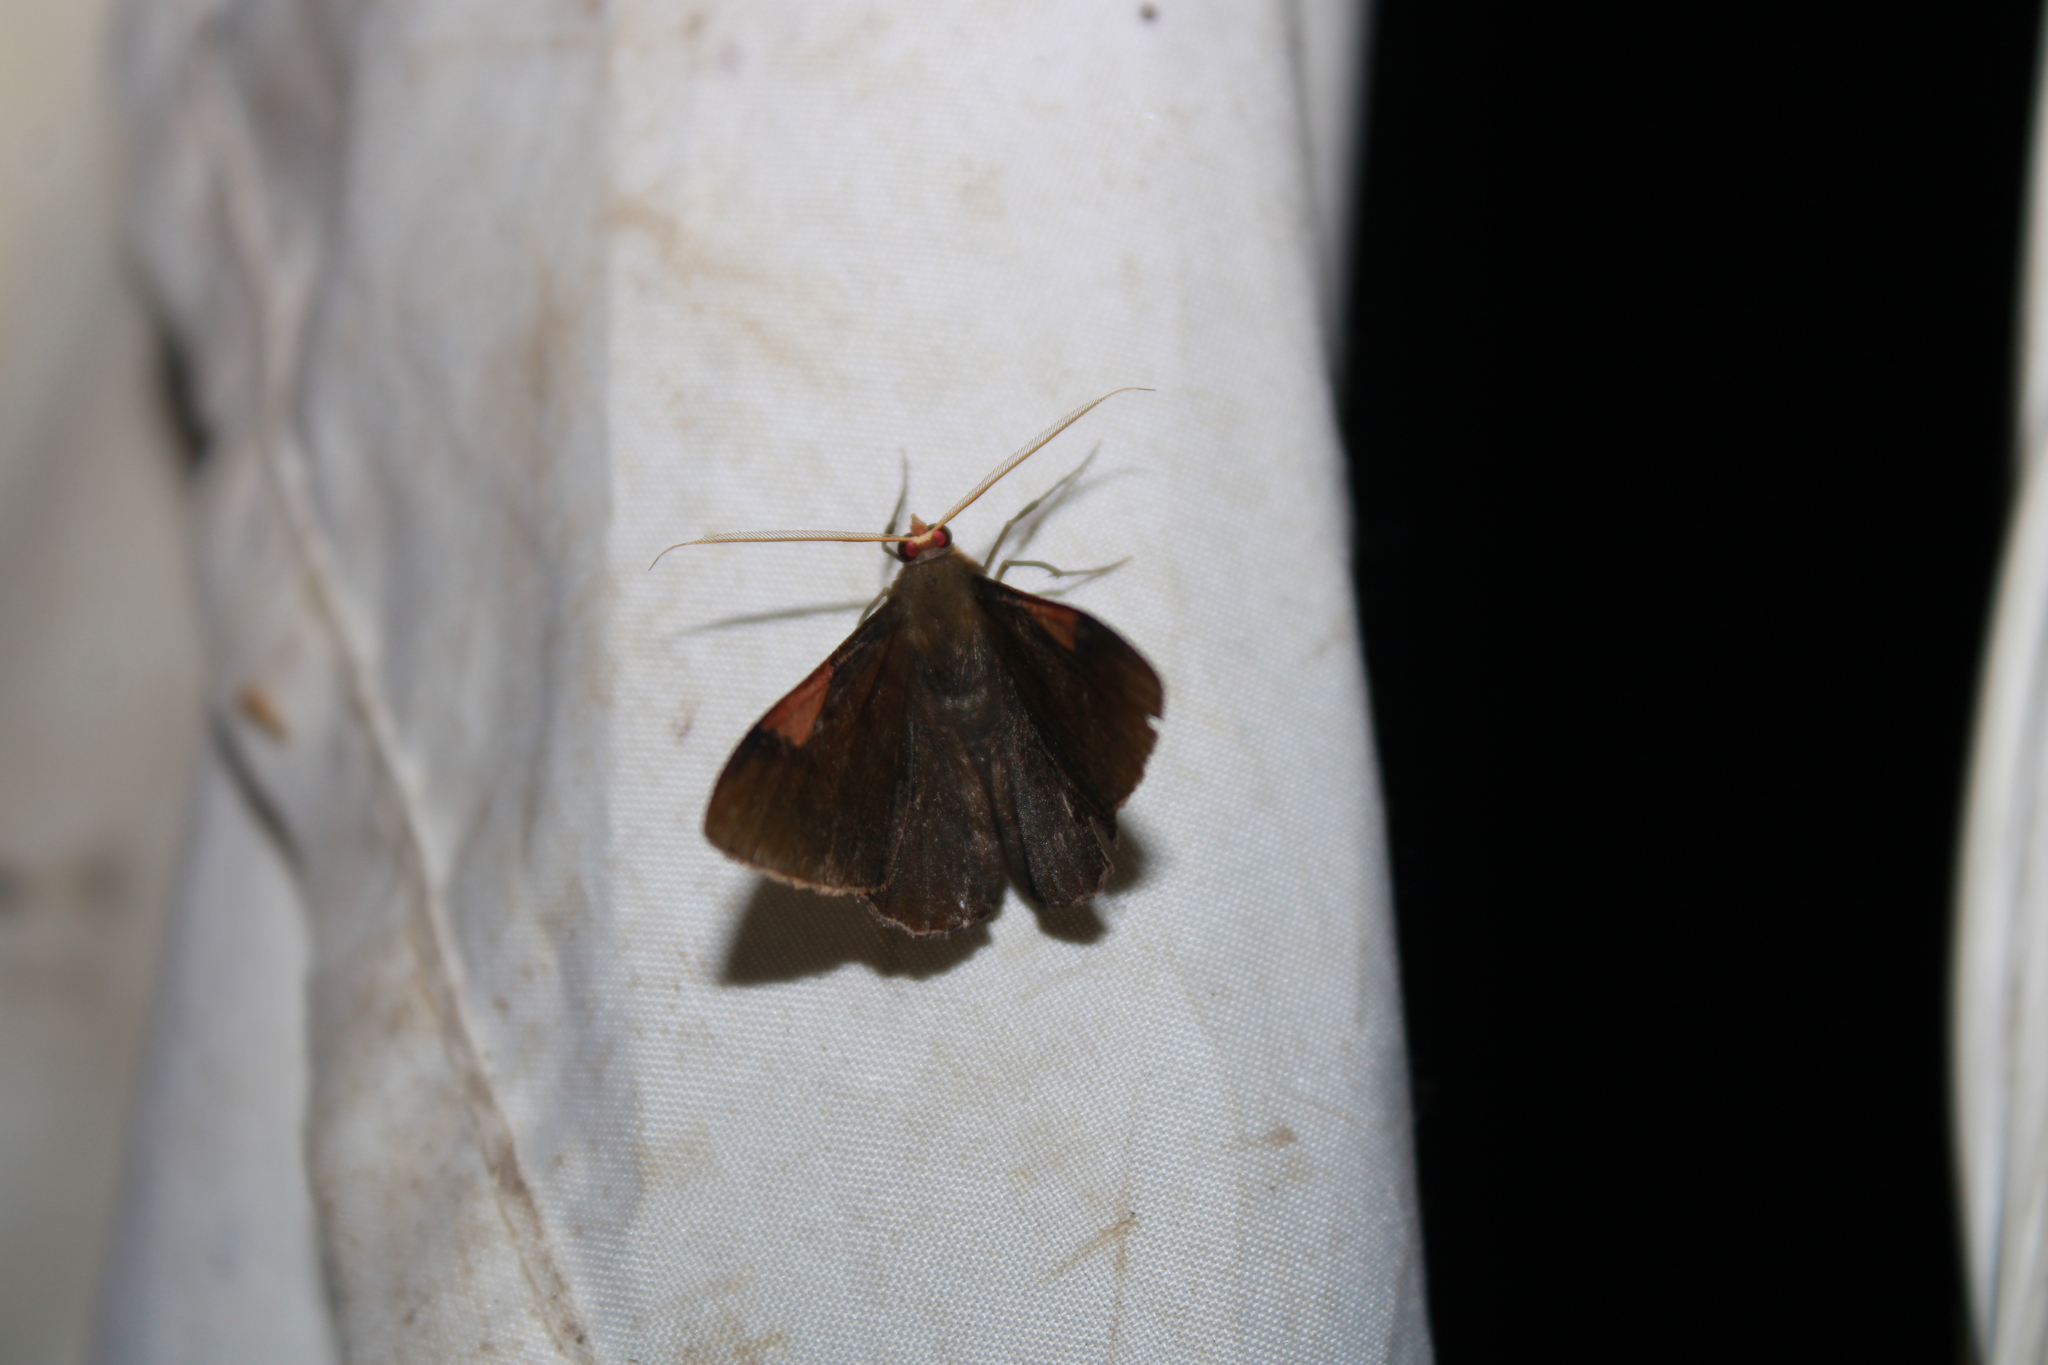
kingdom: Animalia
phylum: Arthropoda
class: Insecta
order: Lepidoptera
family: Geometridae
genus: Sphacelodes
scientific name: Sphacelodes vulneraria
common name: Looper moth
